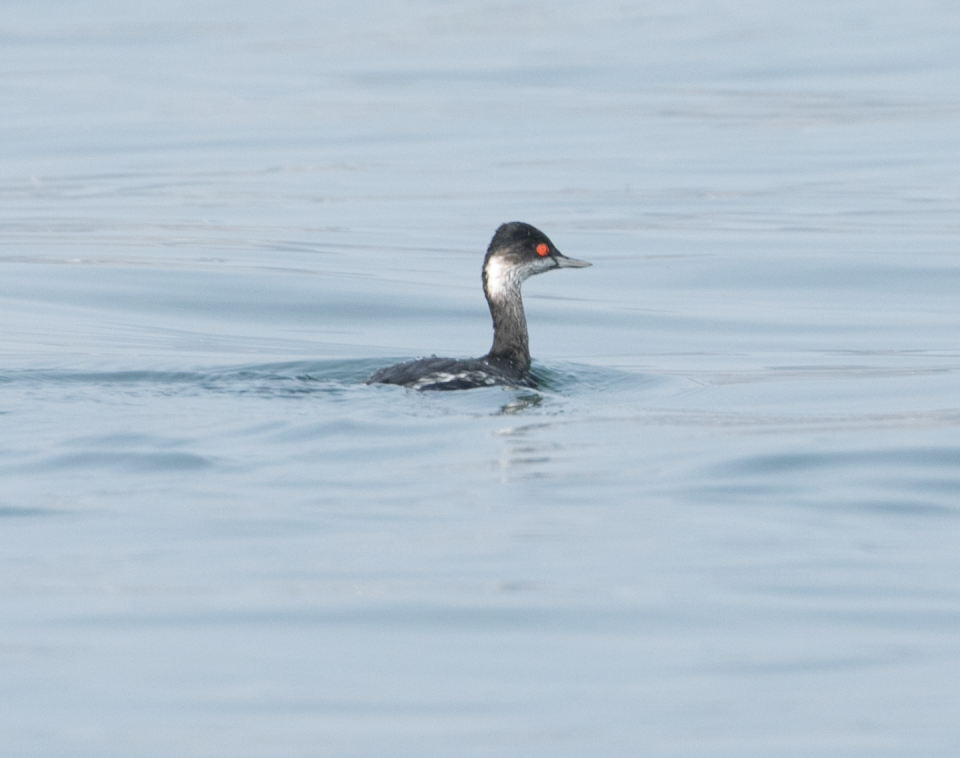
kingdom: Animalia
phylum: Chordata
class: Aves
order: Podicipediformes
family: Podicipedidae
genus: Podiceps
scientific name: Podiceps nigricollis
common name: Black-necked grebe
